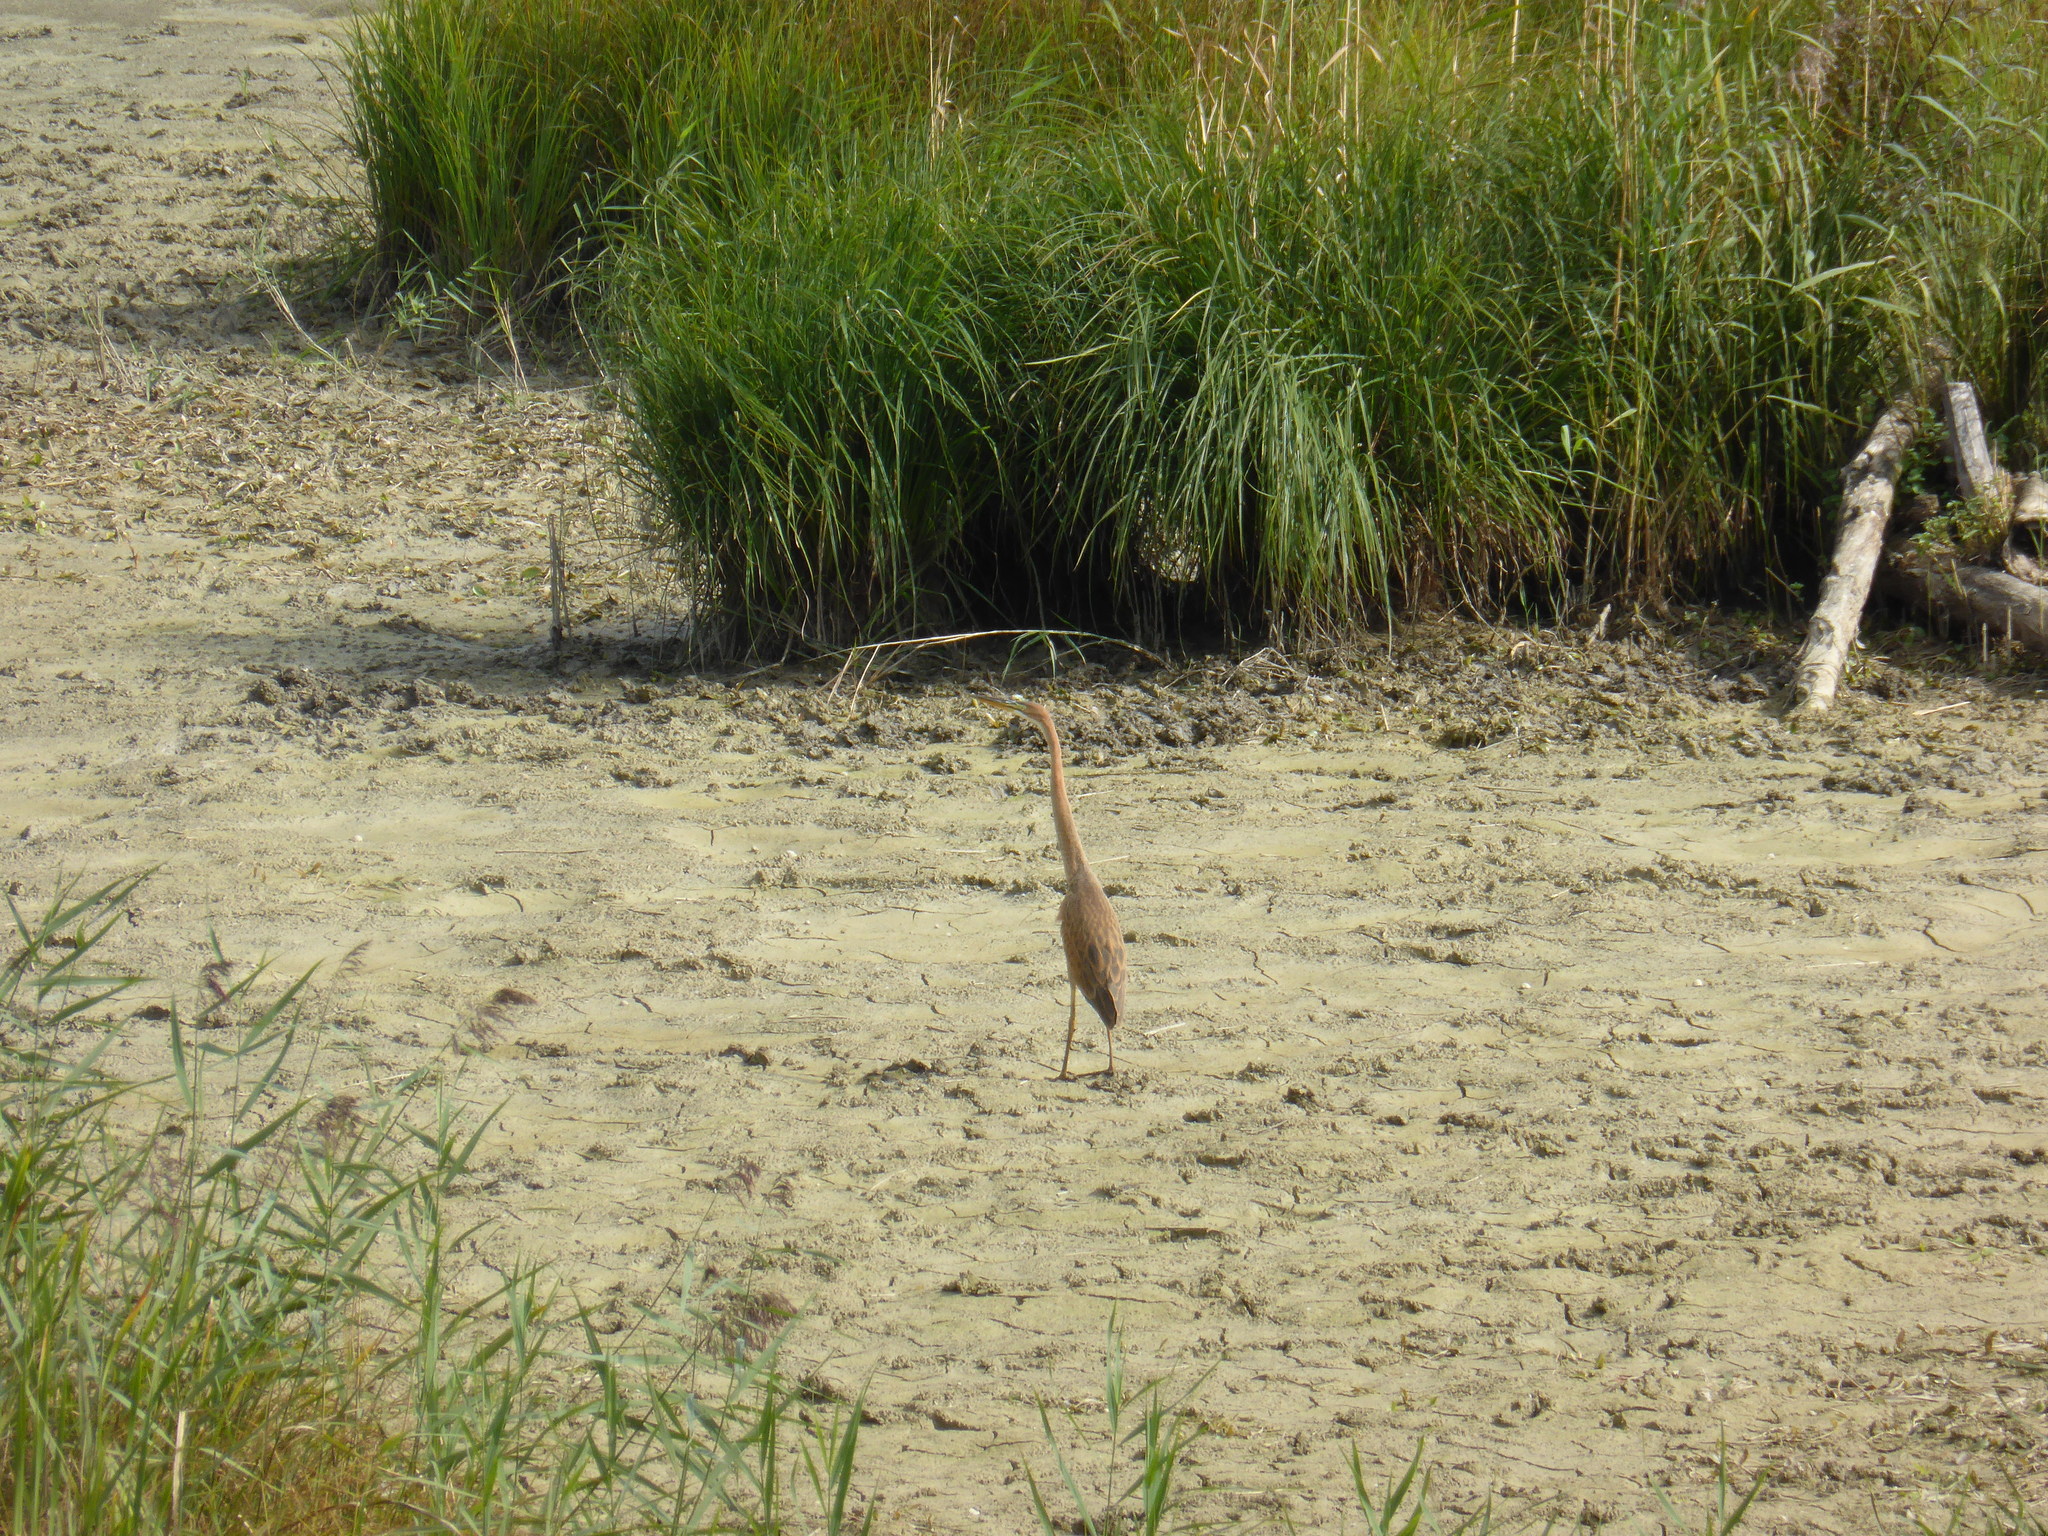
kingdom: Animalia
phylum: Chordata
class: Aves
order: Pelecaniformes
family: Ardeidae
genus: Ardea
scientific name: Ardea purpurea
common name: Purple heron
